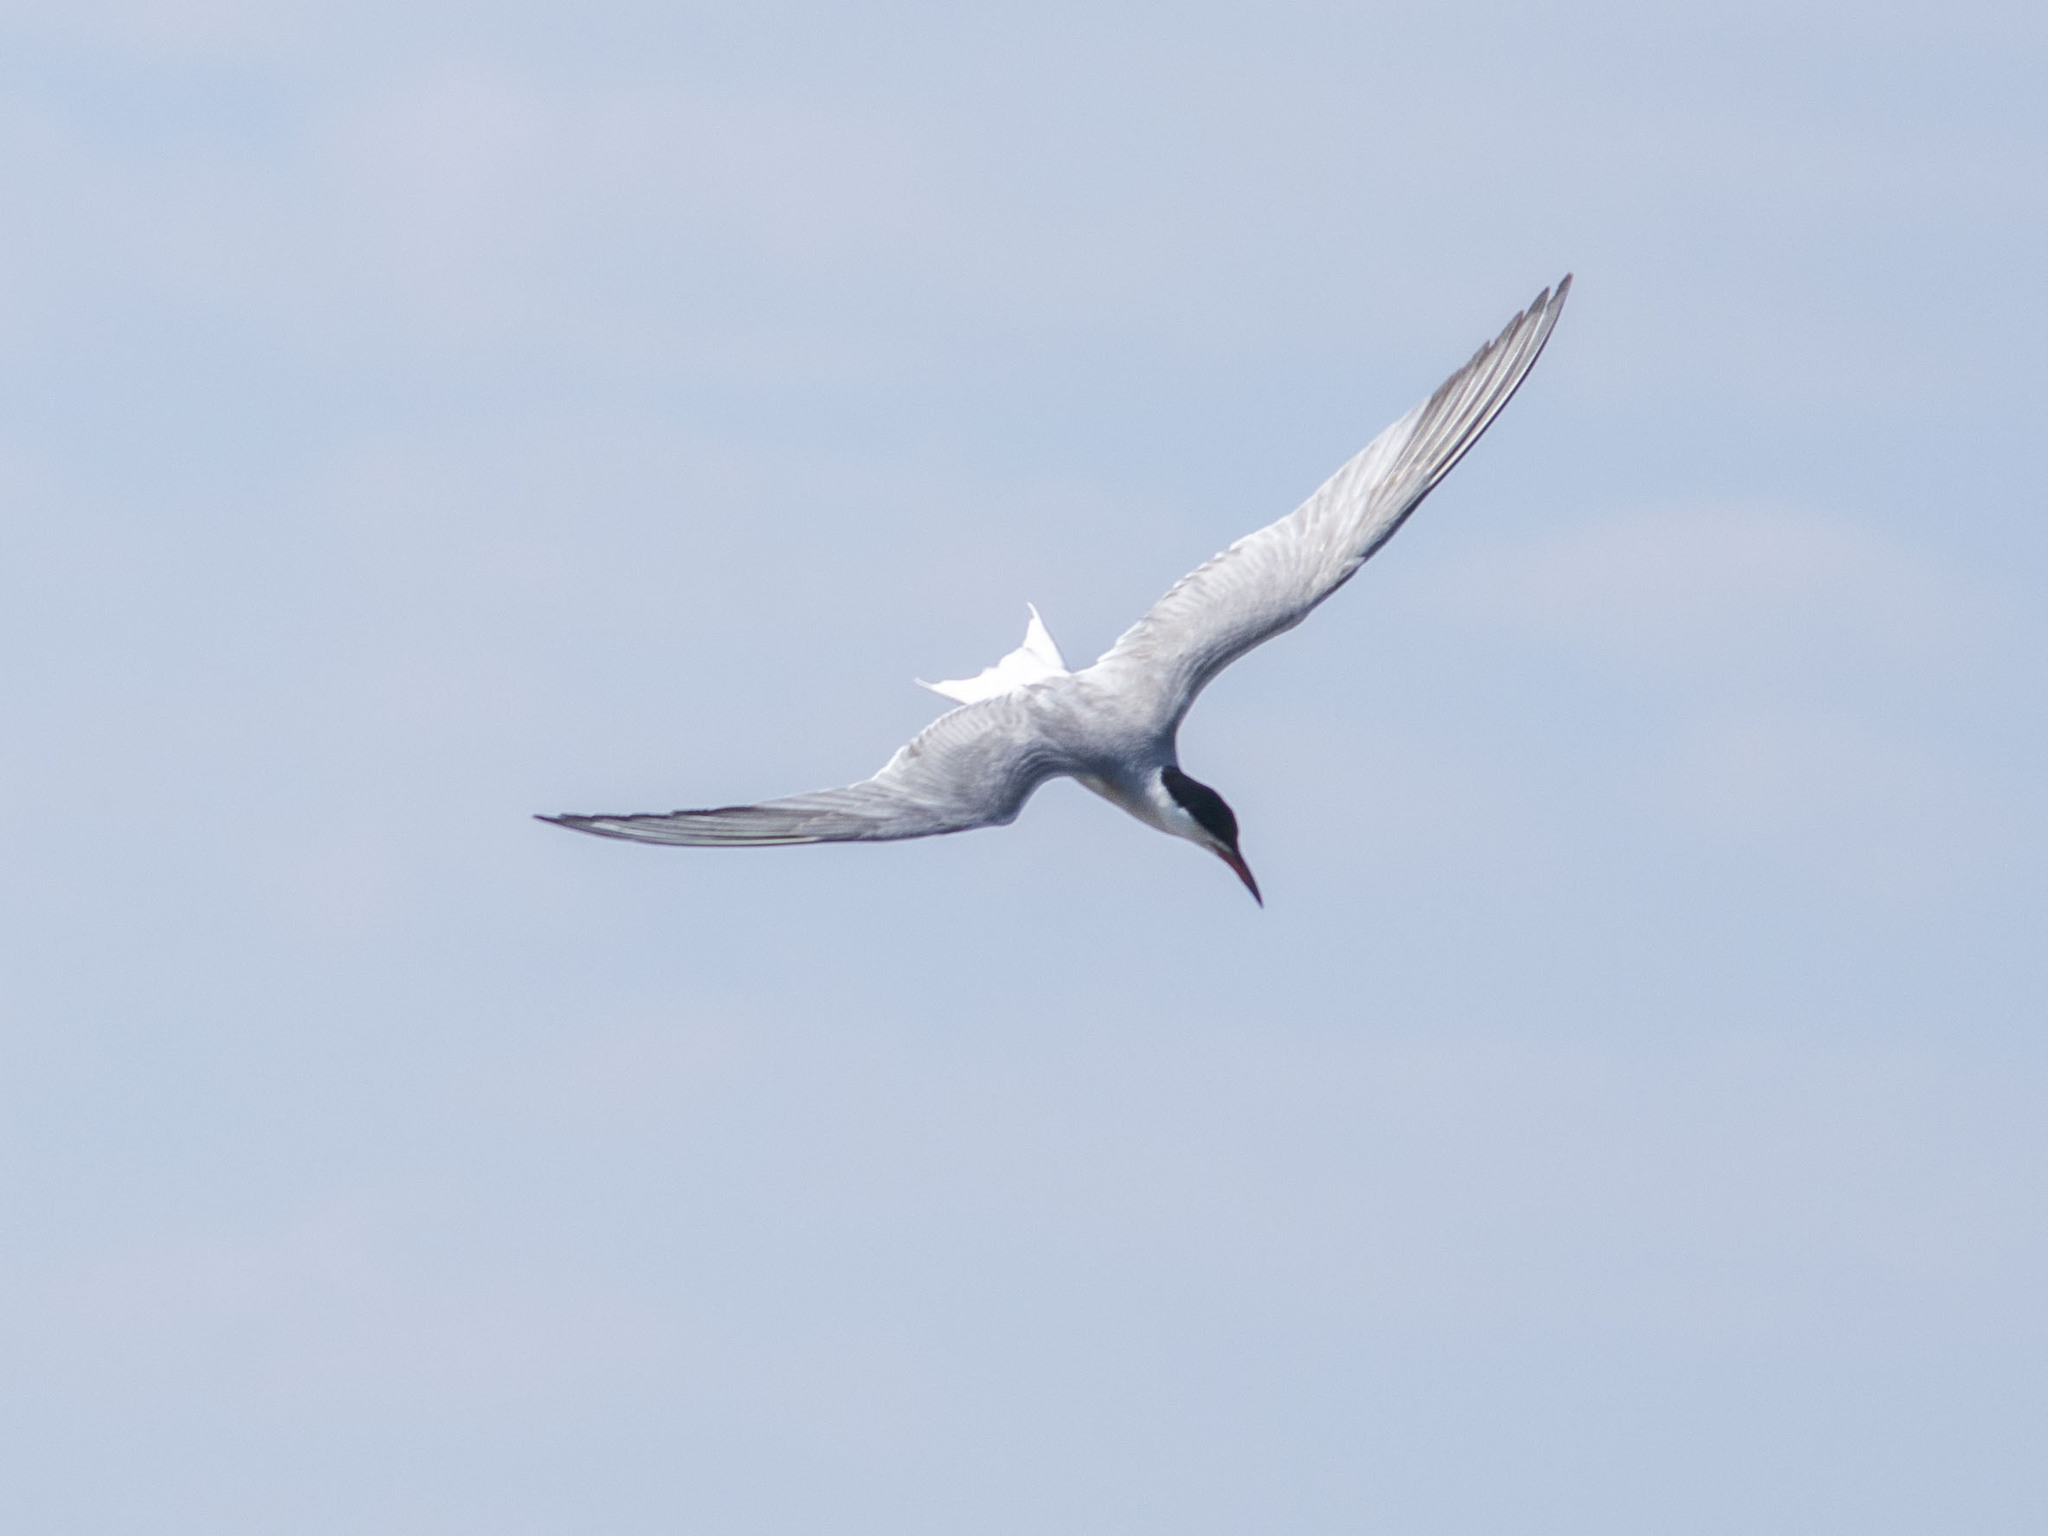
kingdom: Animalia
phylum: Chordata
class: Aves
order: Charadriiformes
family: Laridae
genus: Sterna
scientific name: Sterna hirundo
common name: Common tern
